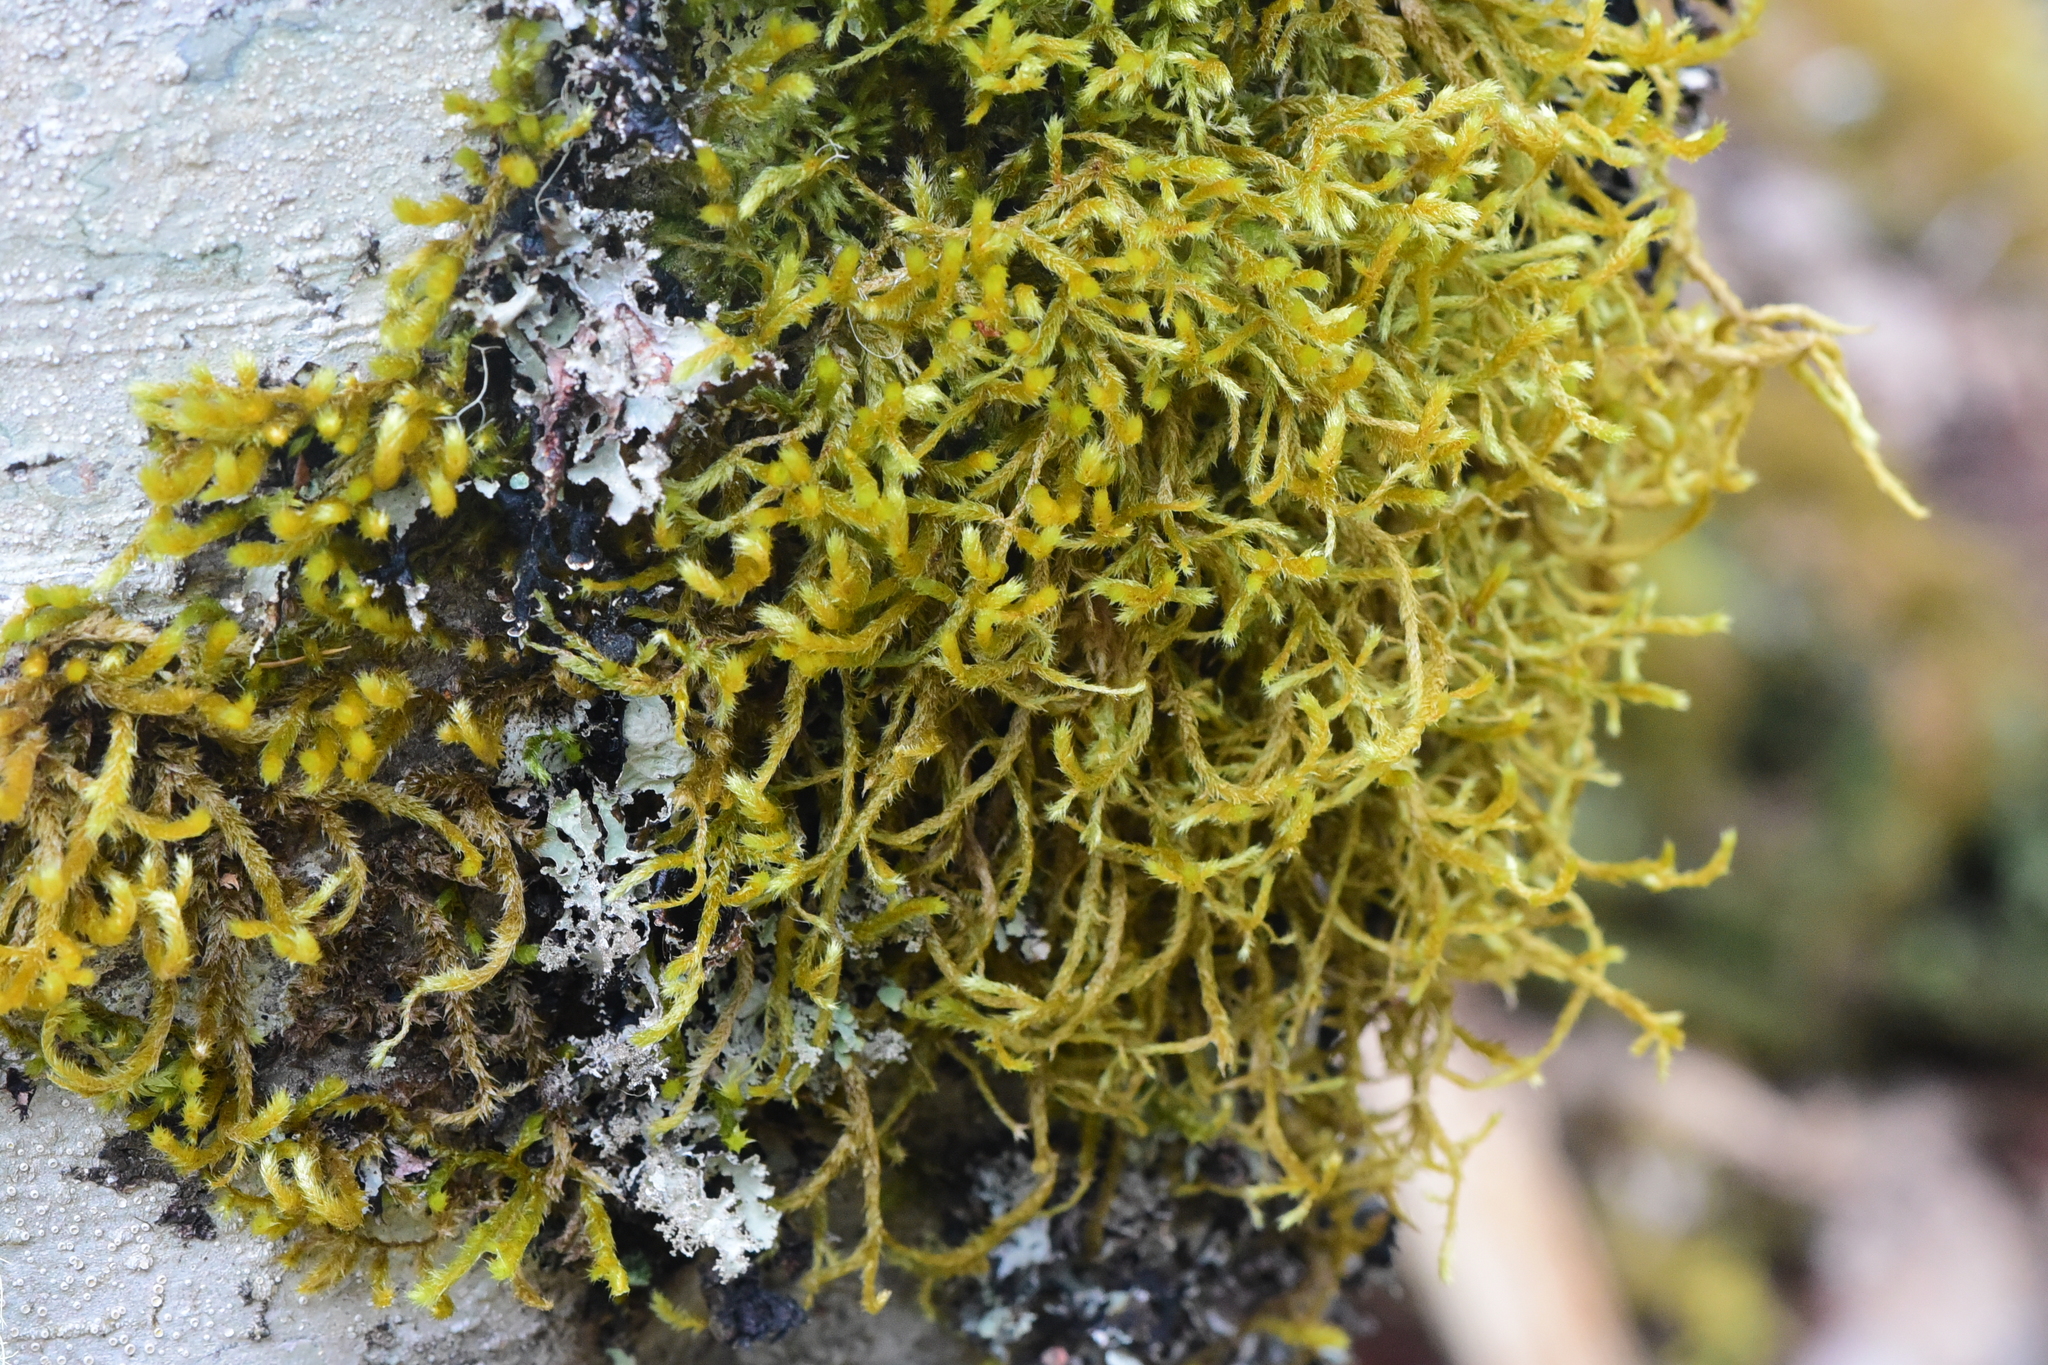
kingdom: Plantae
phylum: Bryophyta
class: Bryopsida
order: Hypnales
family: Antitrichiaceae
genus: Antitrichia
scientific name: Antitrichia curtipendula
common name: Pendulous wing-moss
